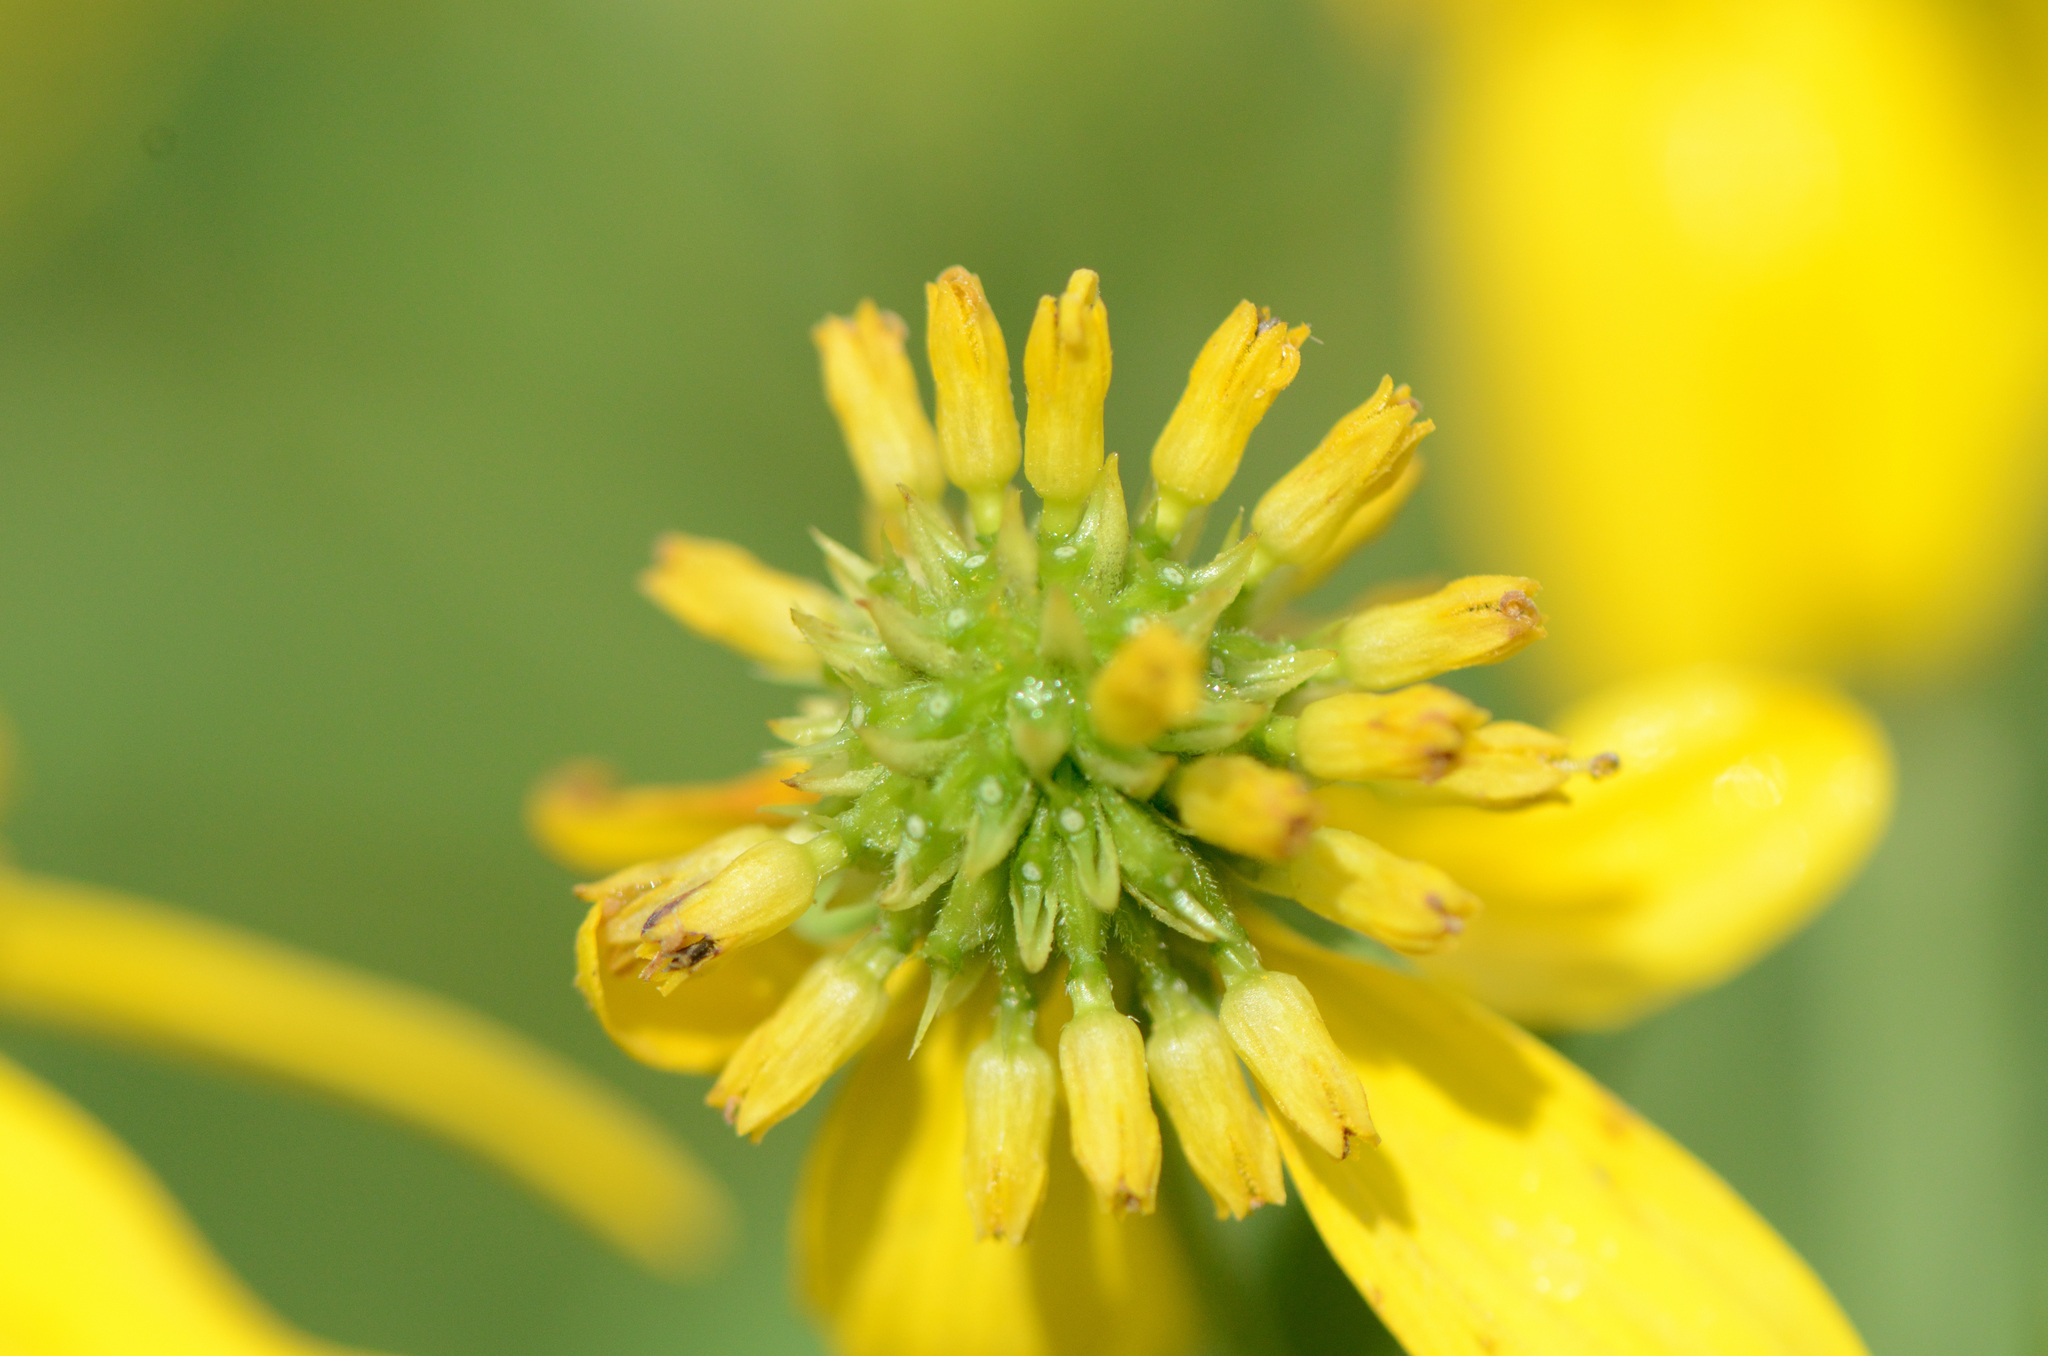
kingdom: Plantae
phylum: Tracheophyta
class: Magnoliopsida
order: Asterales
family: Asteraceae
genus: Verbesina
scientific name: Verbesina alternifolia
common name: Wingstem
